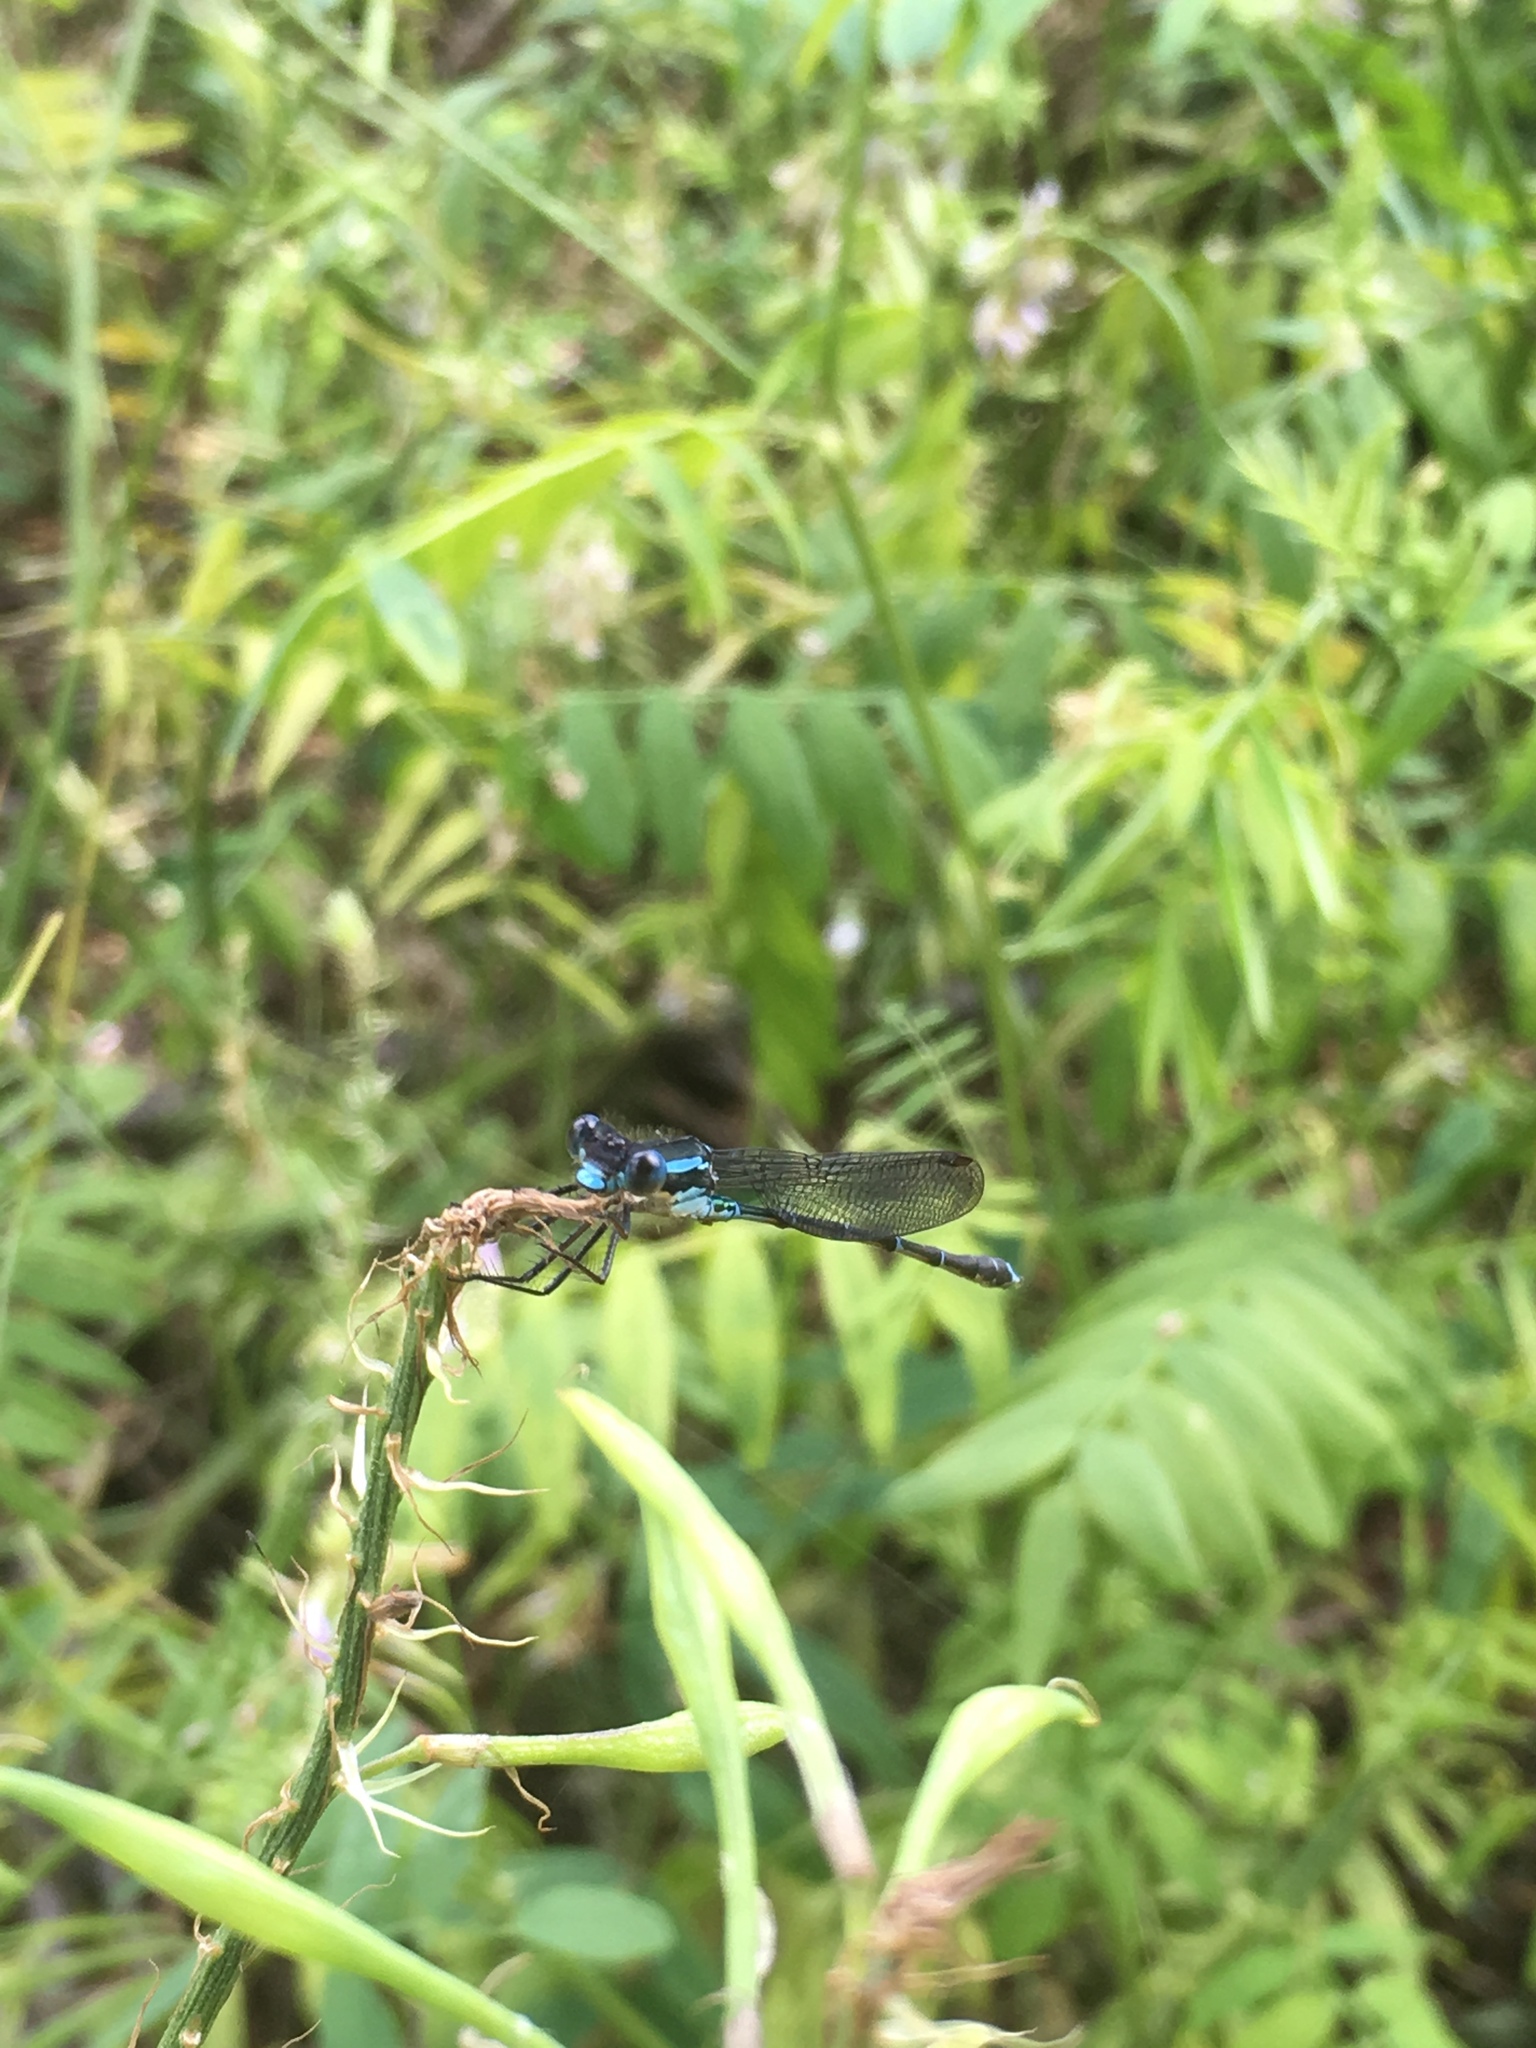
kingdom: Animalia
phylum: Arthropoda
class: Insecta
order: Odonata
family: Lestidae
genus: Austrolestes
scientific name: Austrolestes colensonis
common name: Blue damselfly
